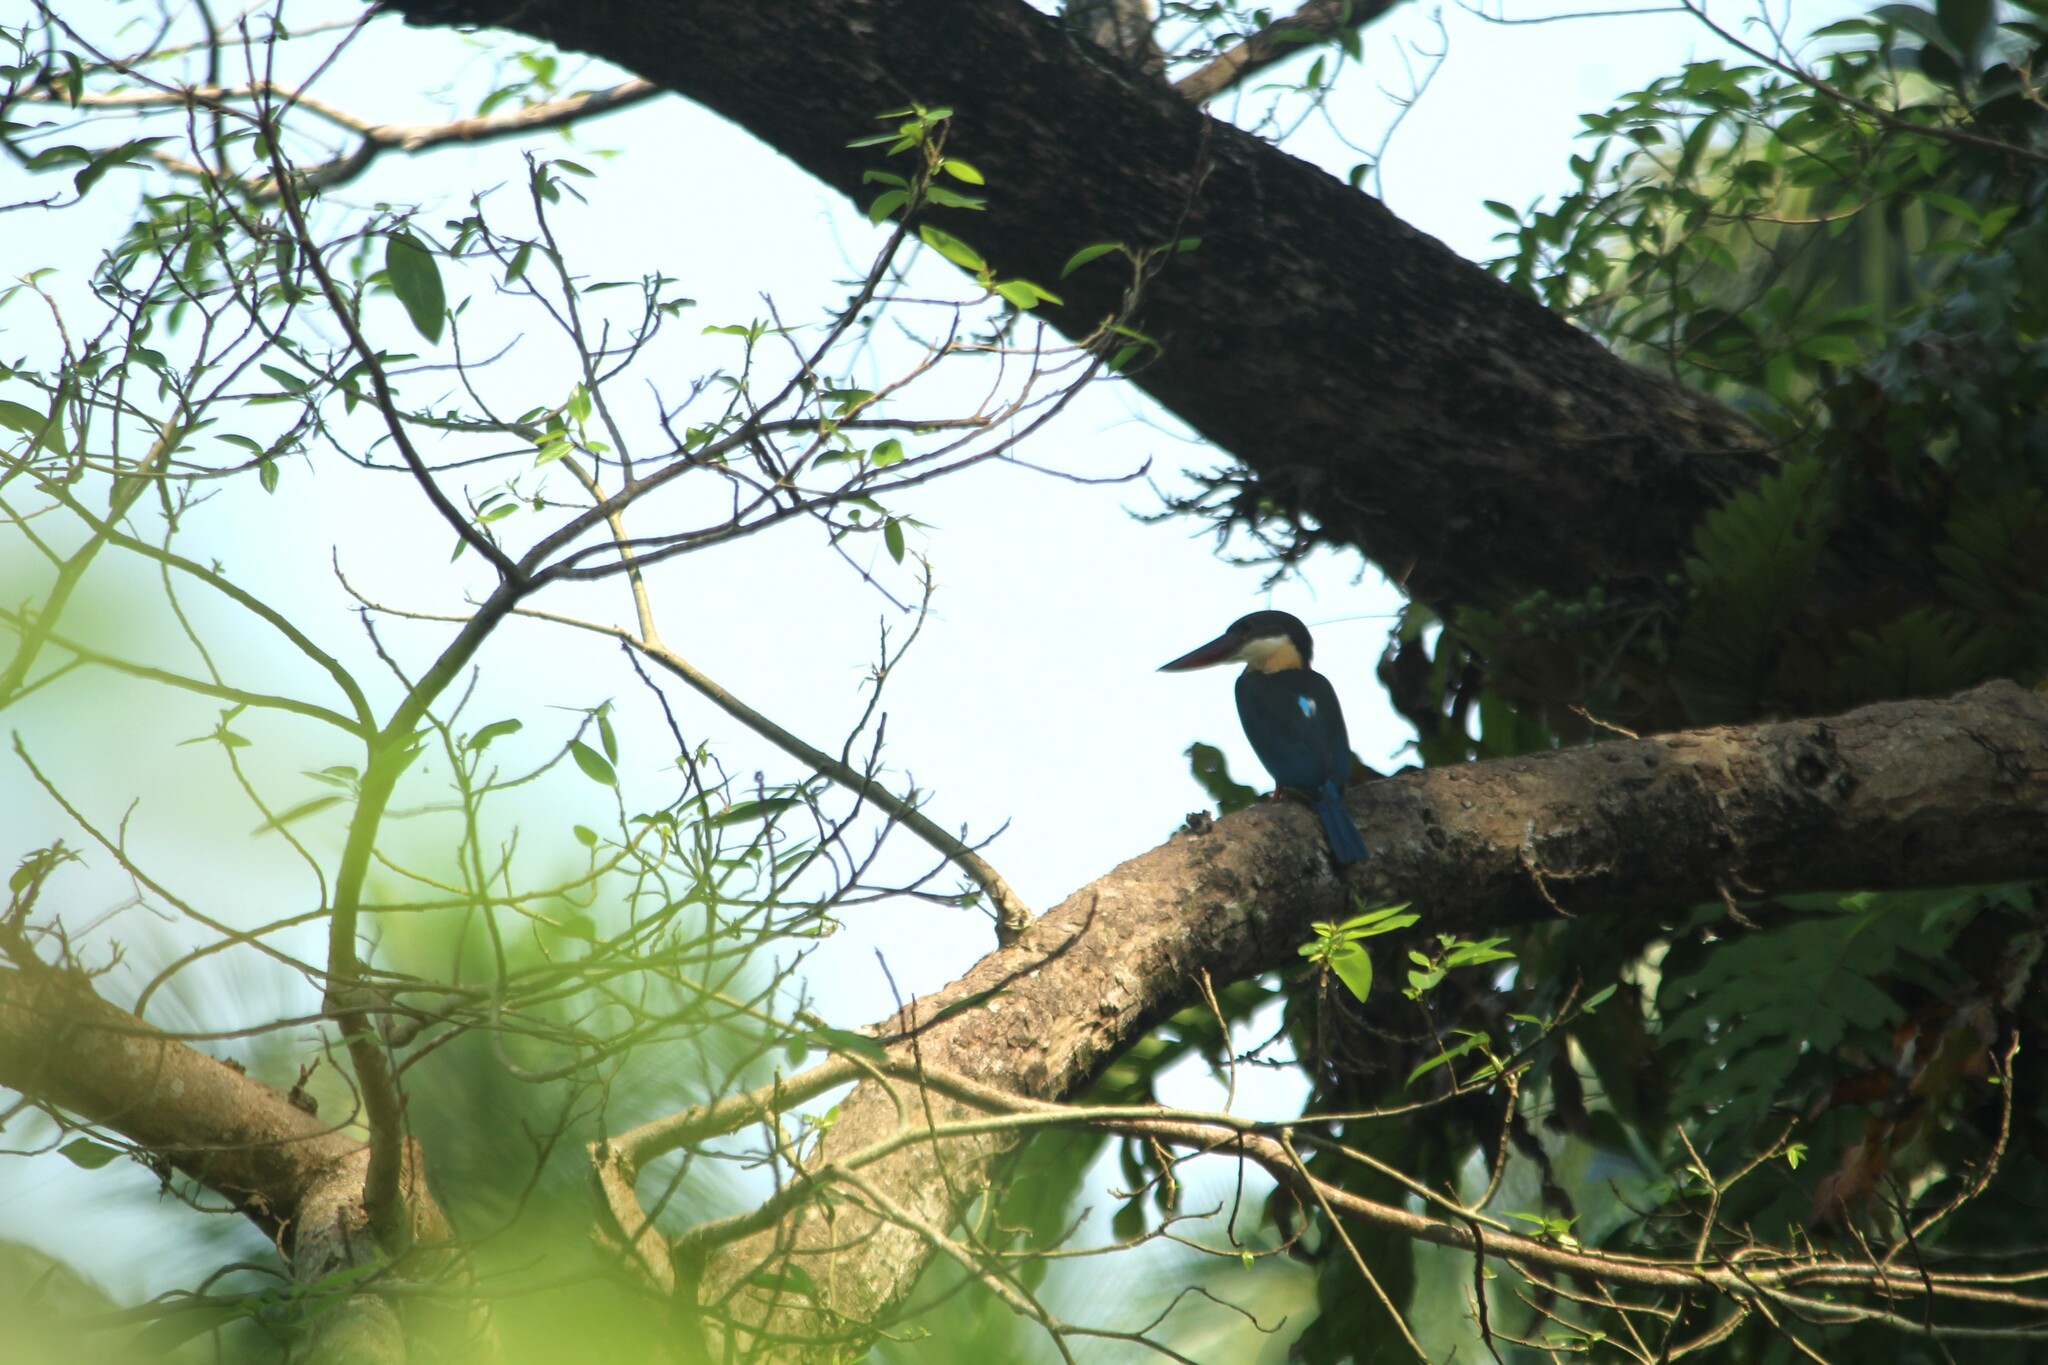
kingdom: Animalia
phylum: Chordata
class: Aves
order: Coraciiformes
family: Alcedinidae
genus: Pelargopsis
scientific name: Pelargopsis capensis
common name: Stork-billed kingfisher
